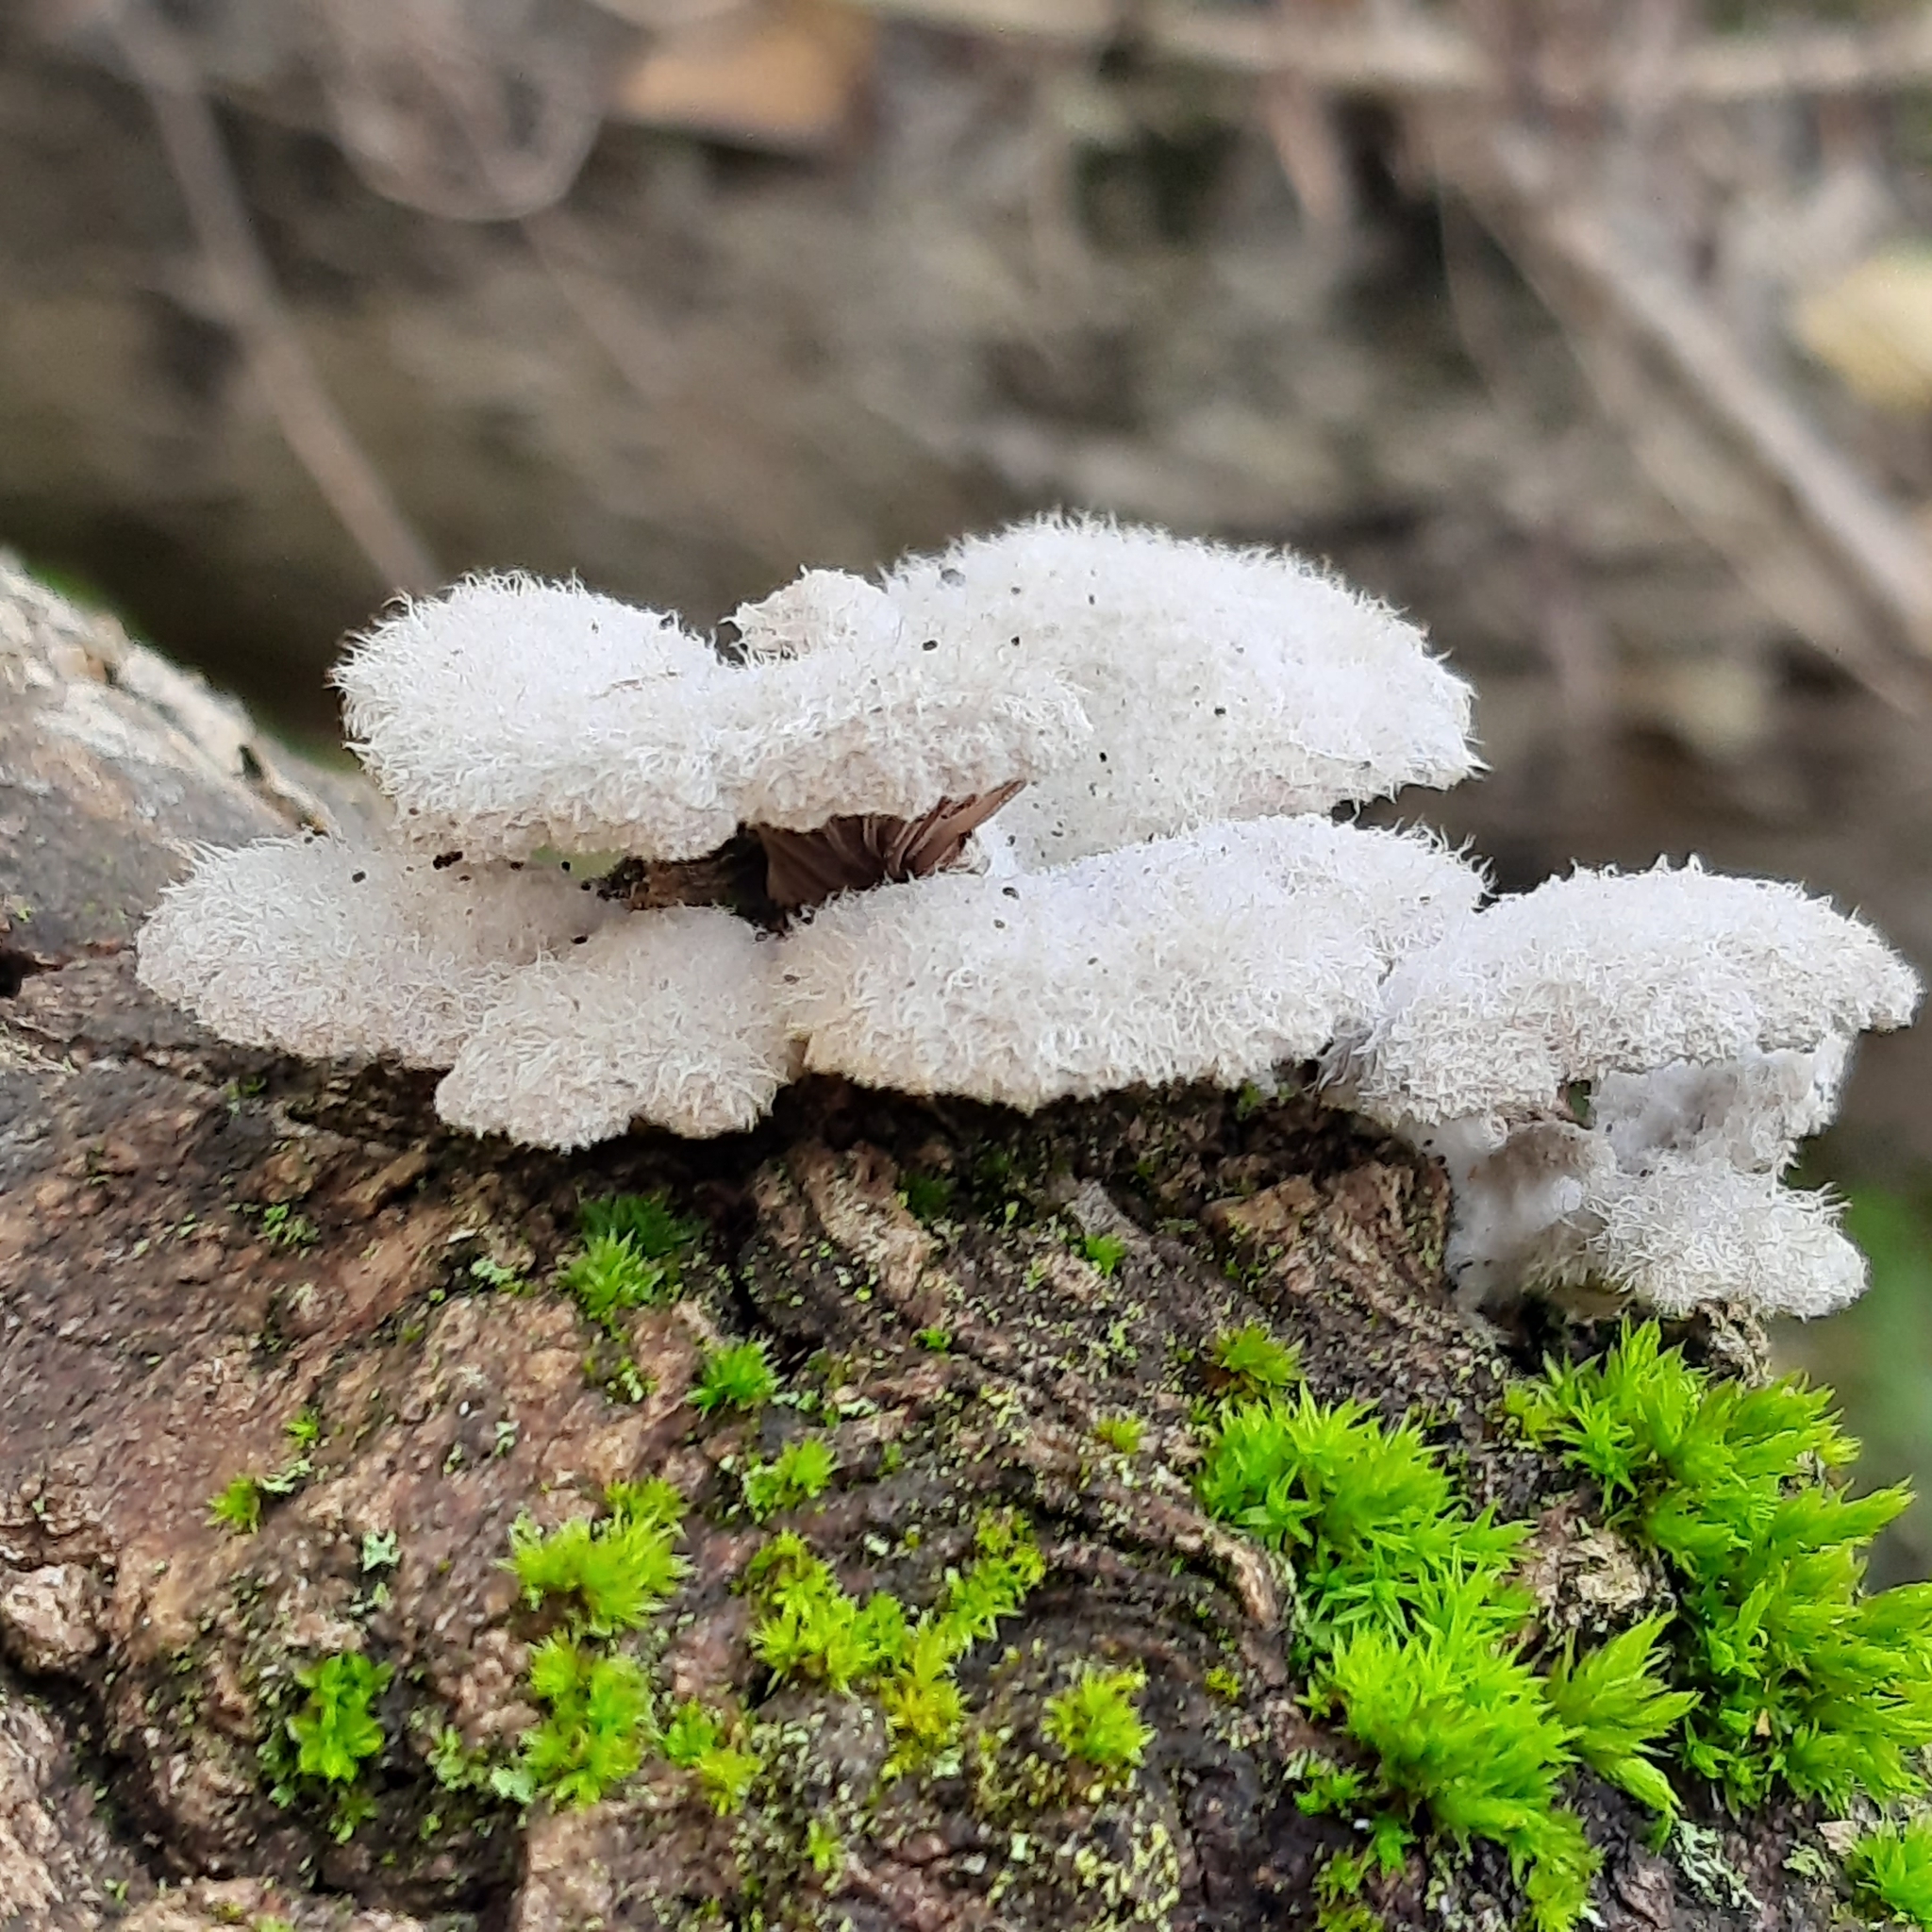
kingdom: Fungi
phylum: Basidiomycota
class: Agaricomycetes
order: Agaricales
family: Schizophyllaceae
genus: Schizophyllum
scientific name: Schizophyllum commune
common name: Common porecrust
